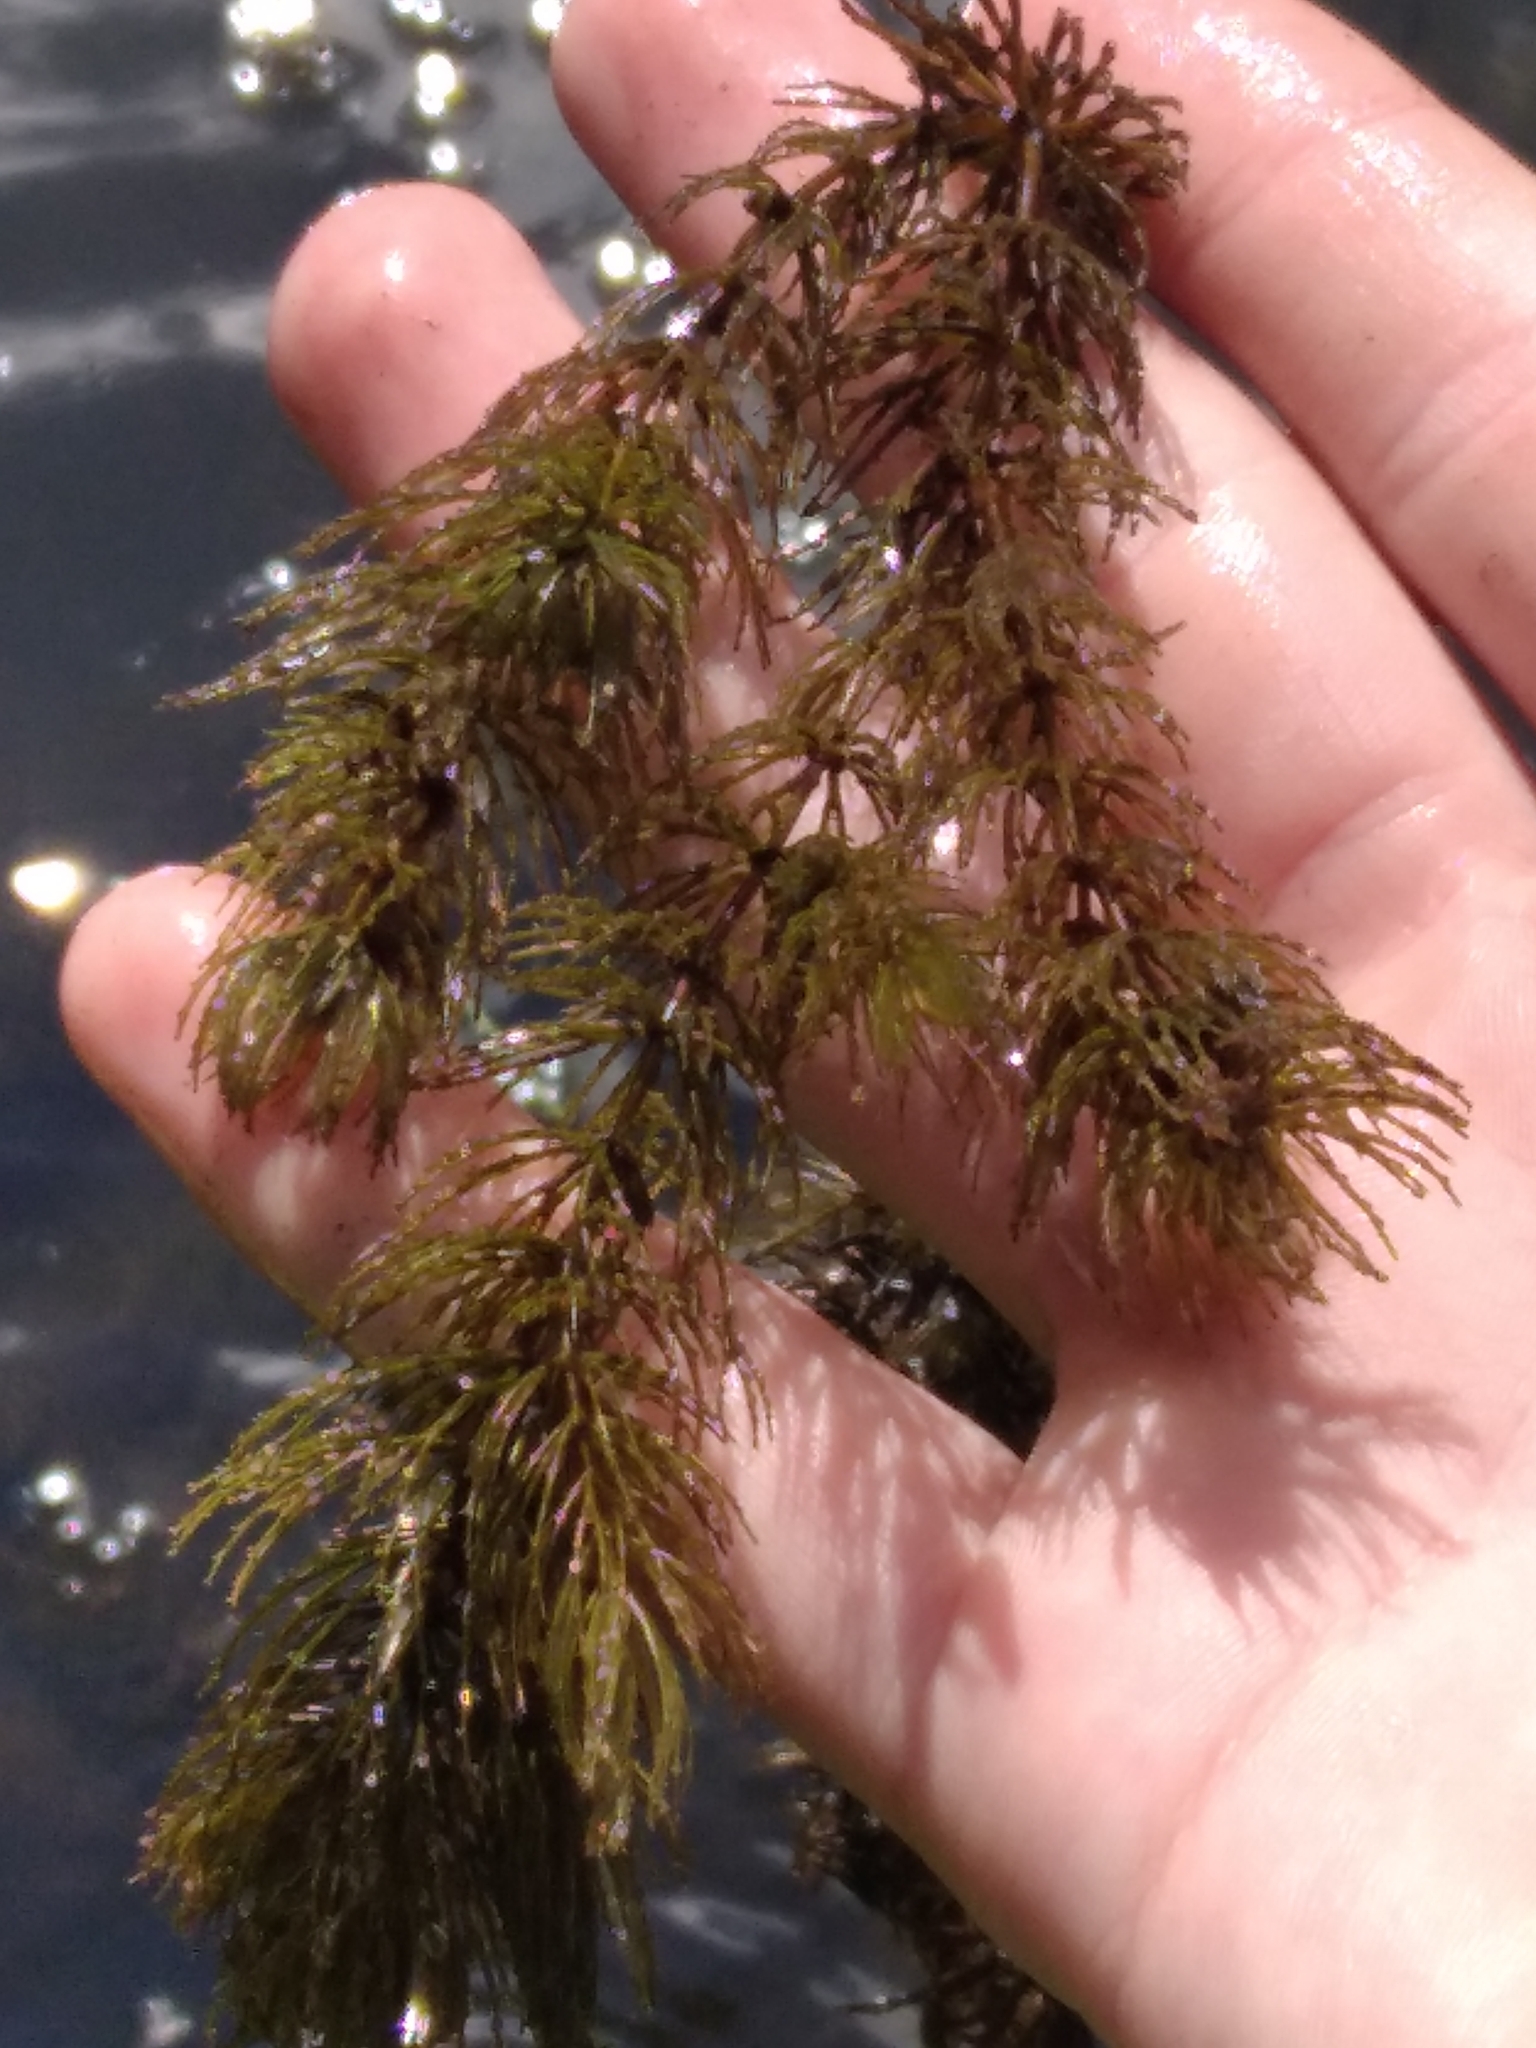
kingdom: Plantae
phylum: Tracheophyta
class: Magnoliopsida
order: Ceratophyllales
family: Ceratophyllaceae
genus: Ceratophyllum
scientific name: Ceratophyllum demersum
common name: Rigid hornwort
